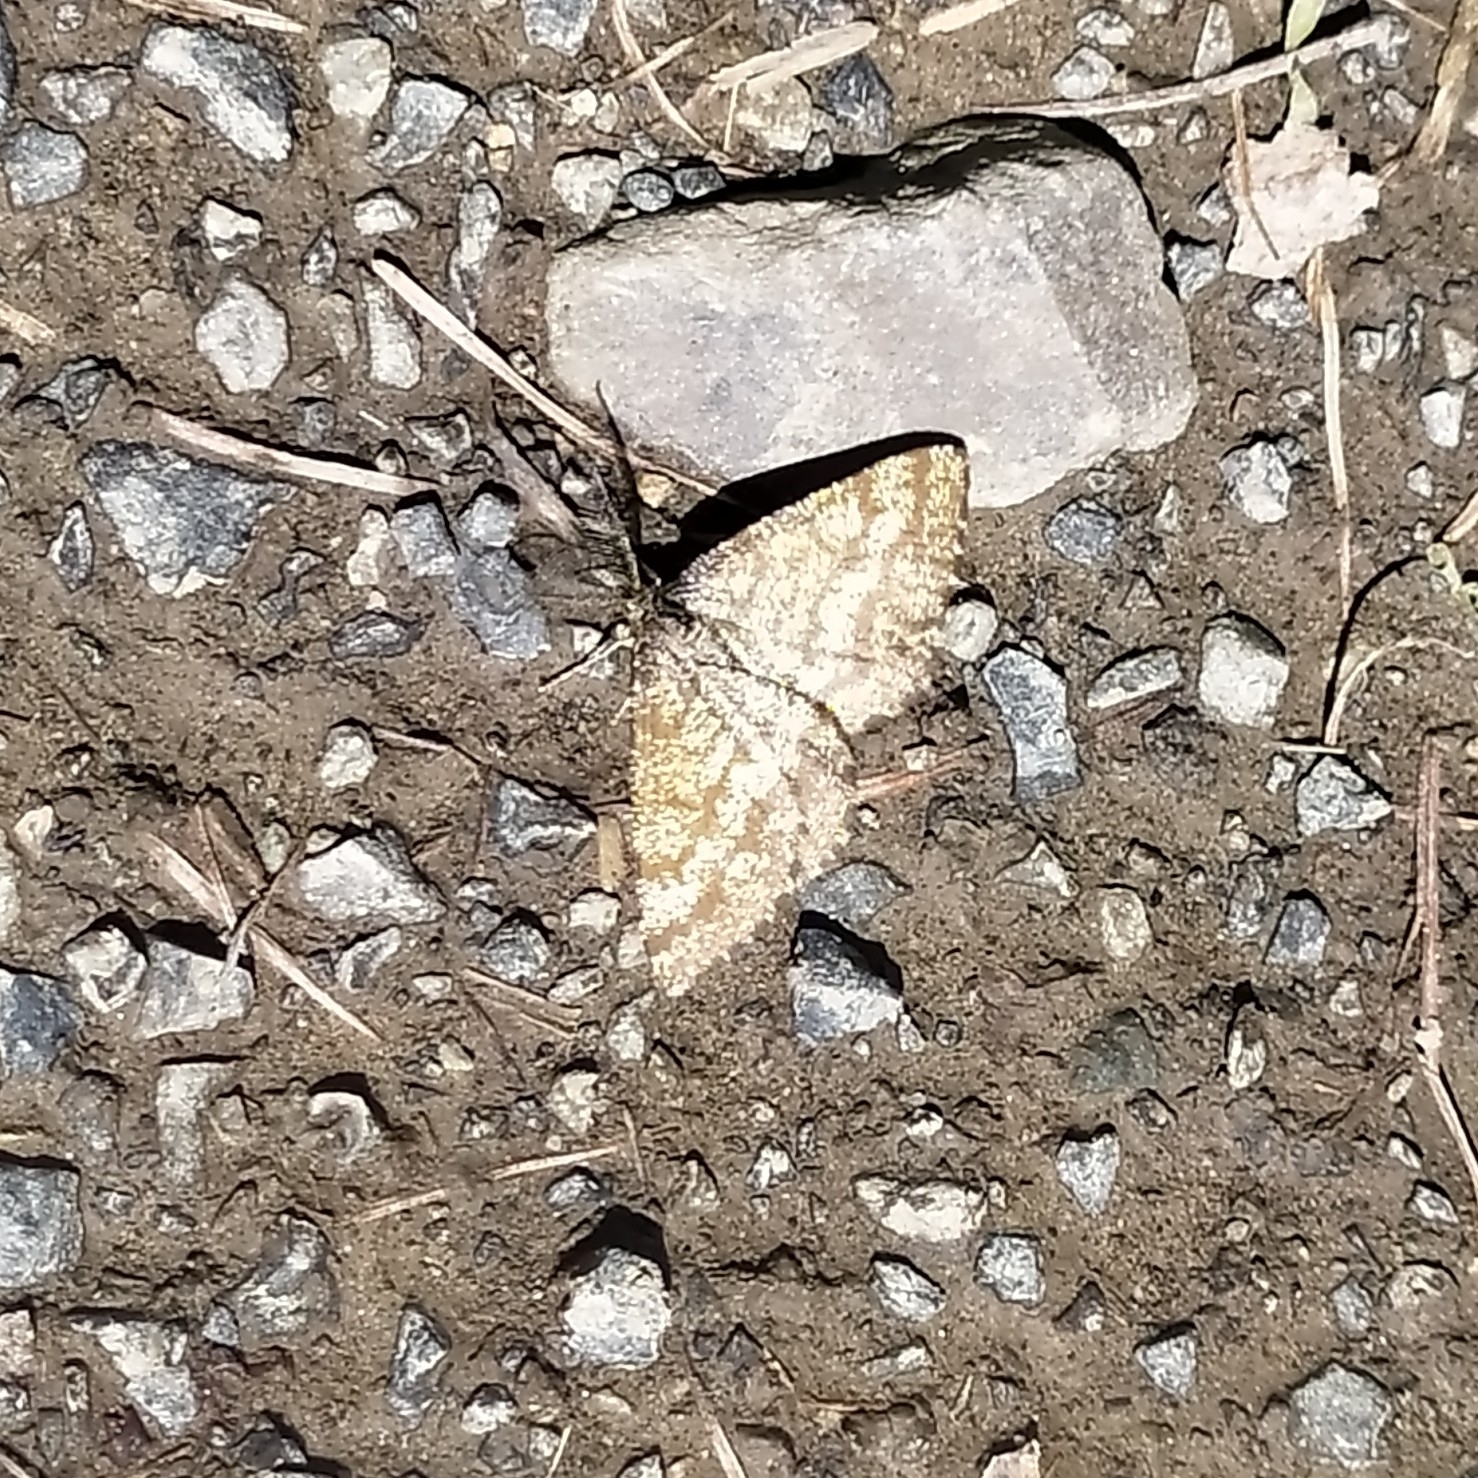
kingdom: Animalia
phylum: Arthropoda
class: Insecta
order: Lepidoptera
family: Geometridae
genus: Ematurga
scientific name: Ematurga atomaria
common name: Common heath
